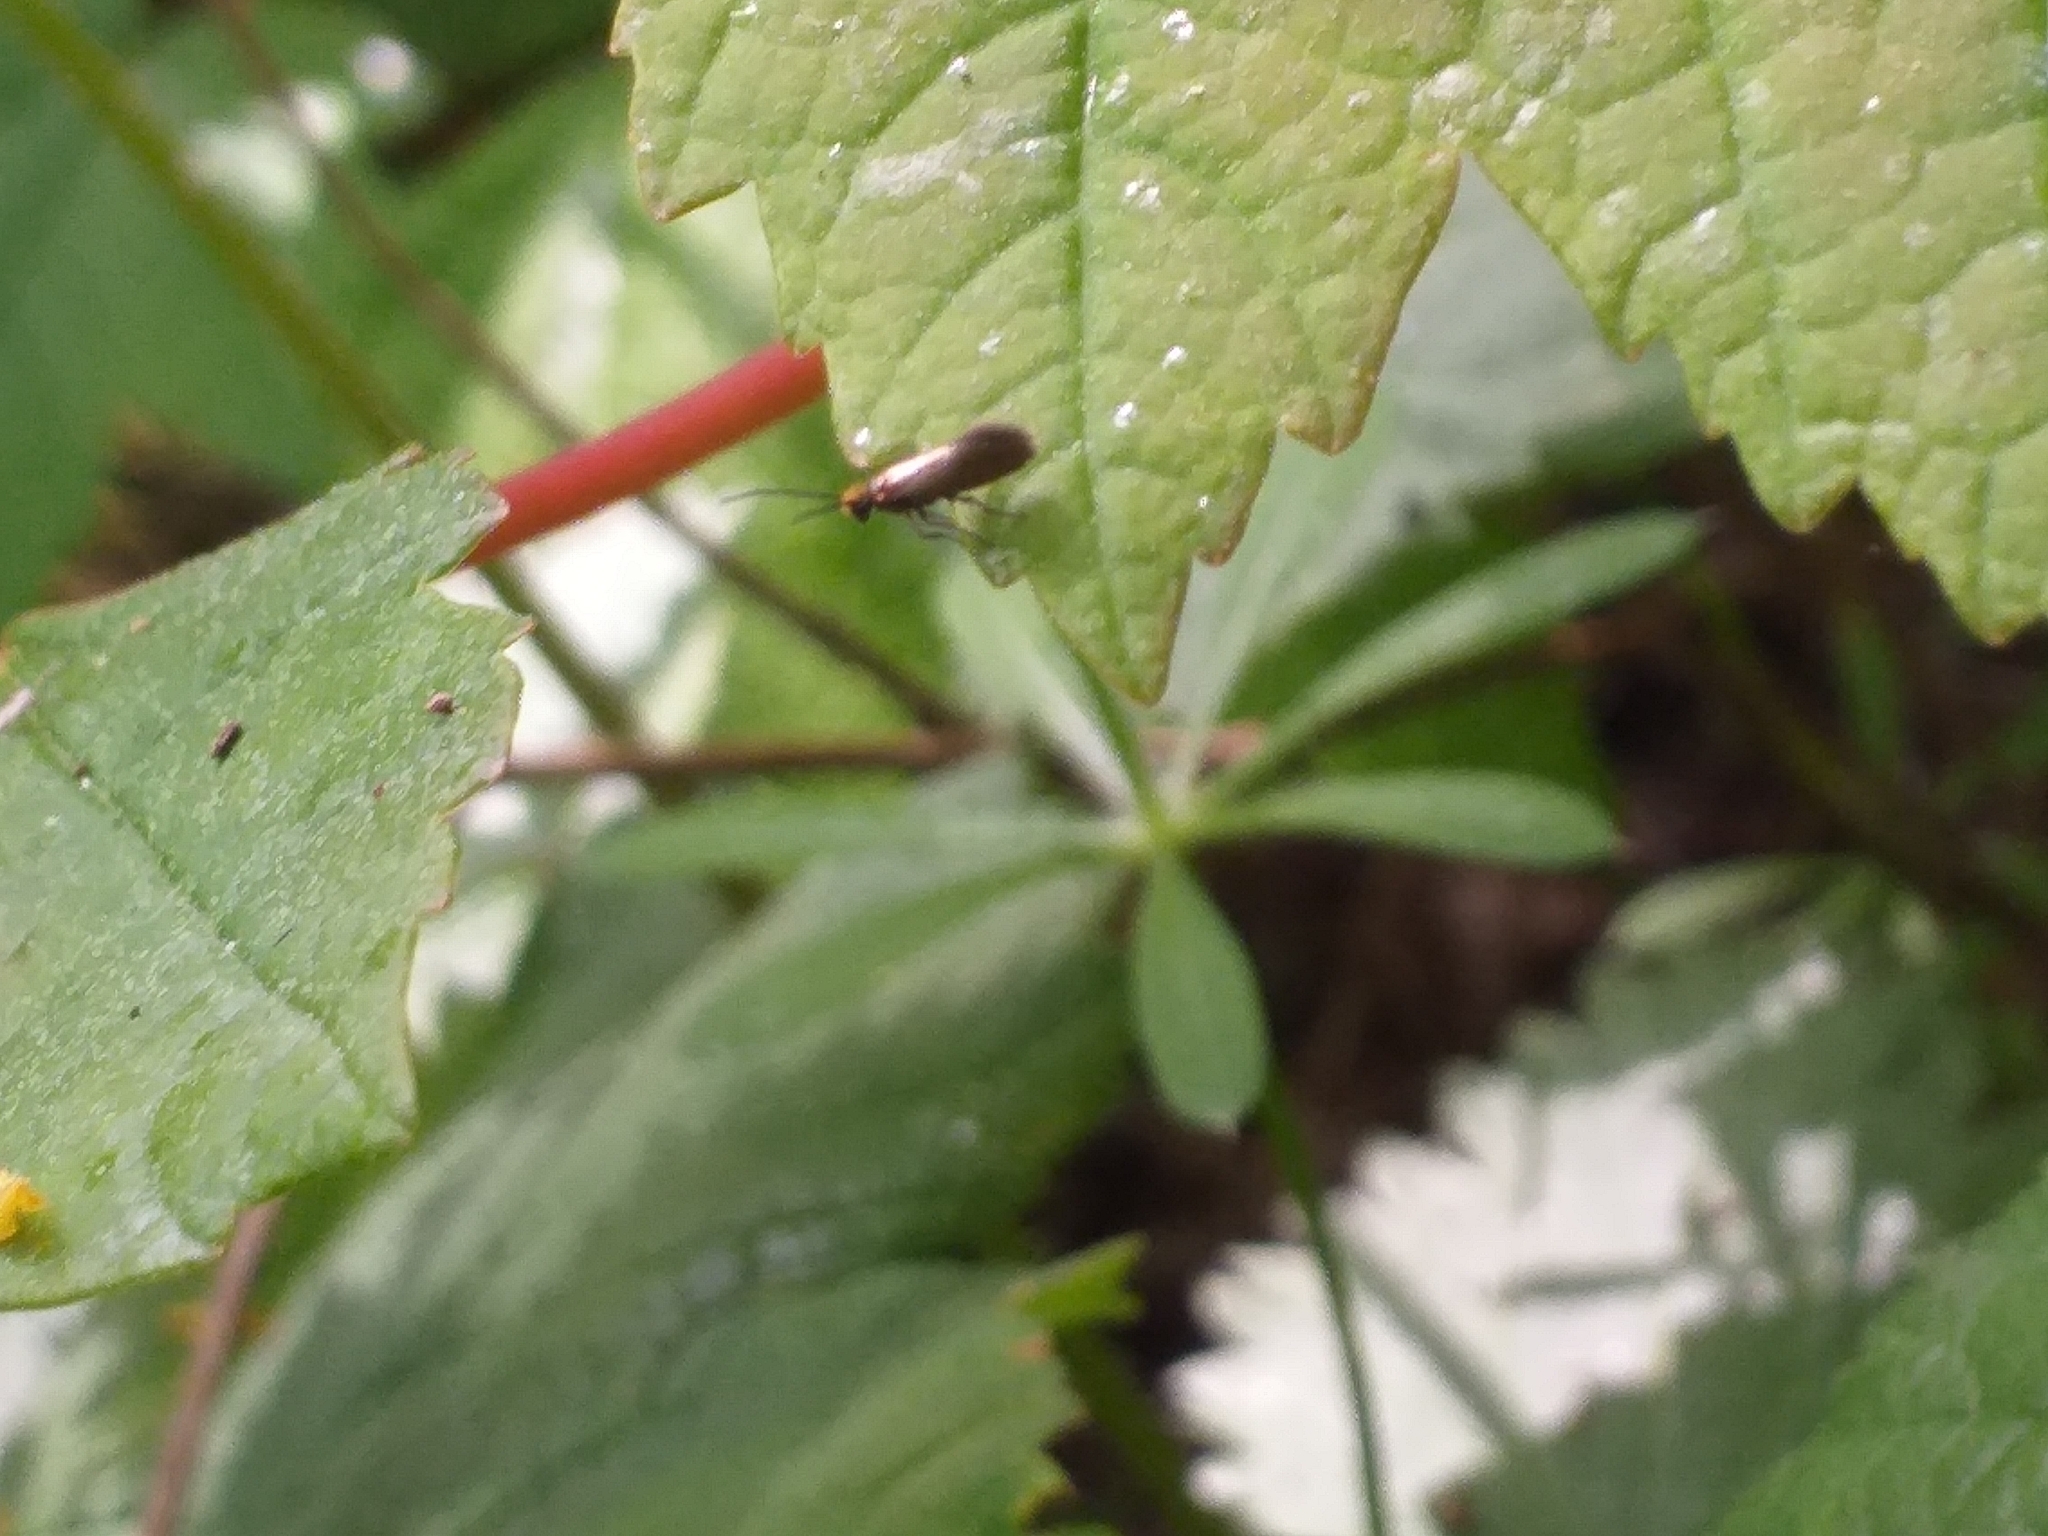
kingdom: Animalia
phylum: Arthropoda
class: Insecta
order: Lepidoptera
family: Micropterigidae
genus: Micropterix
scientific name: Micropterix calthella
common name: Plain gold
